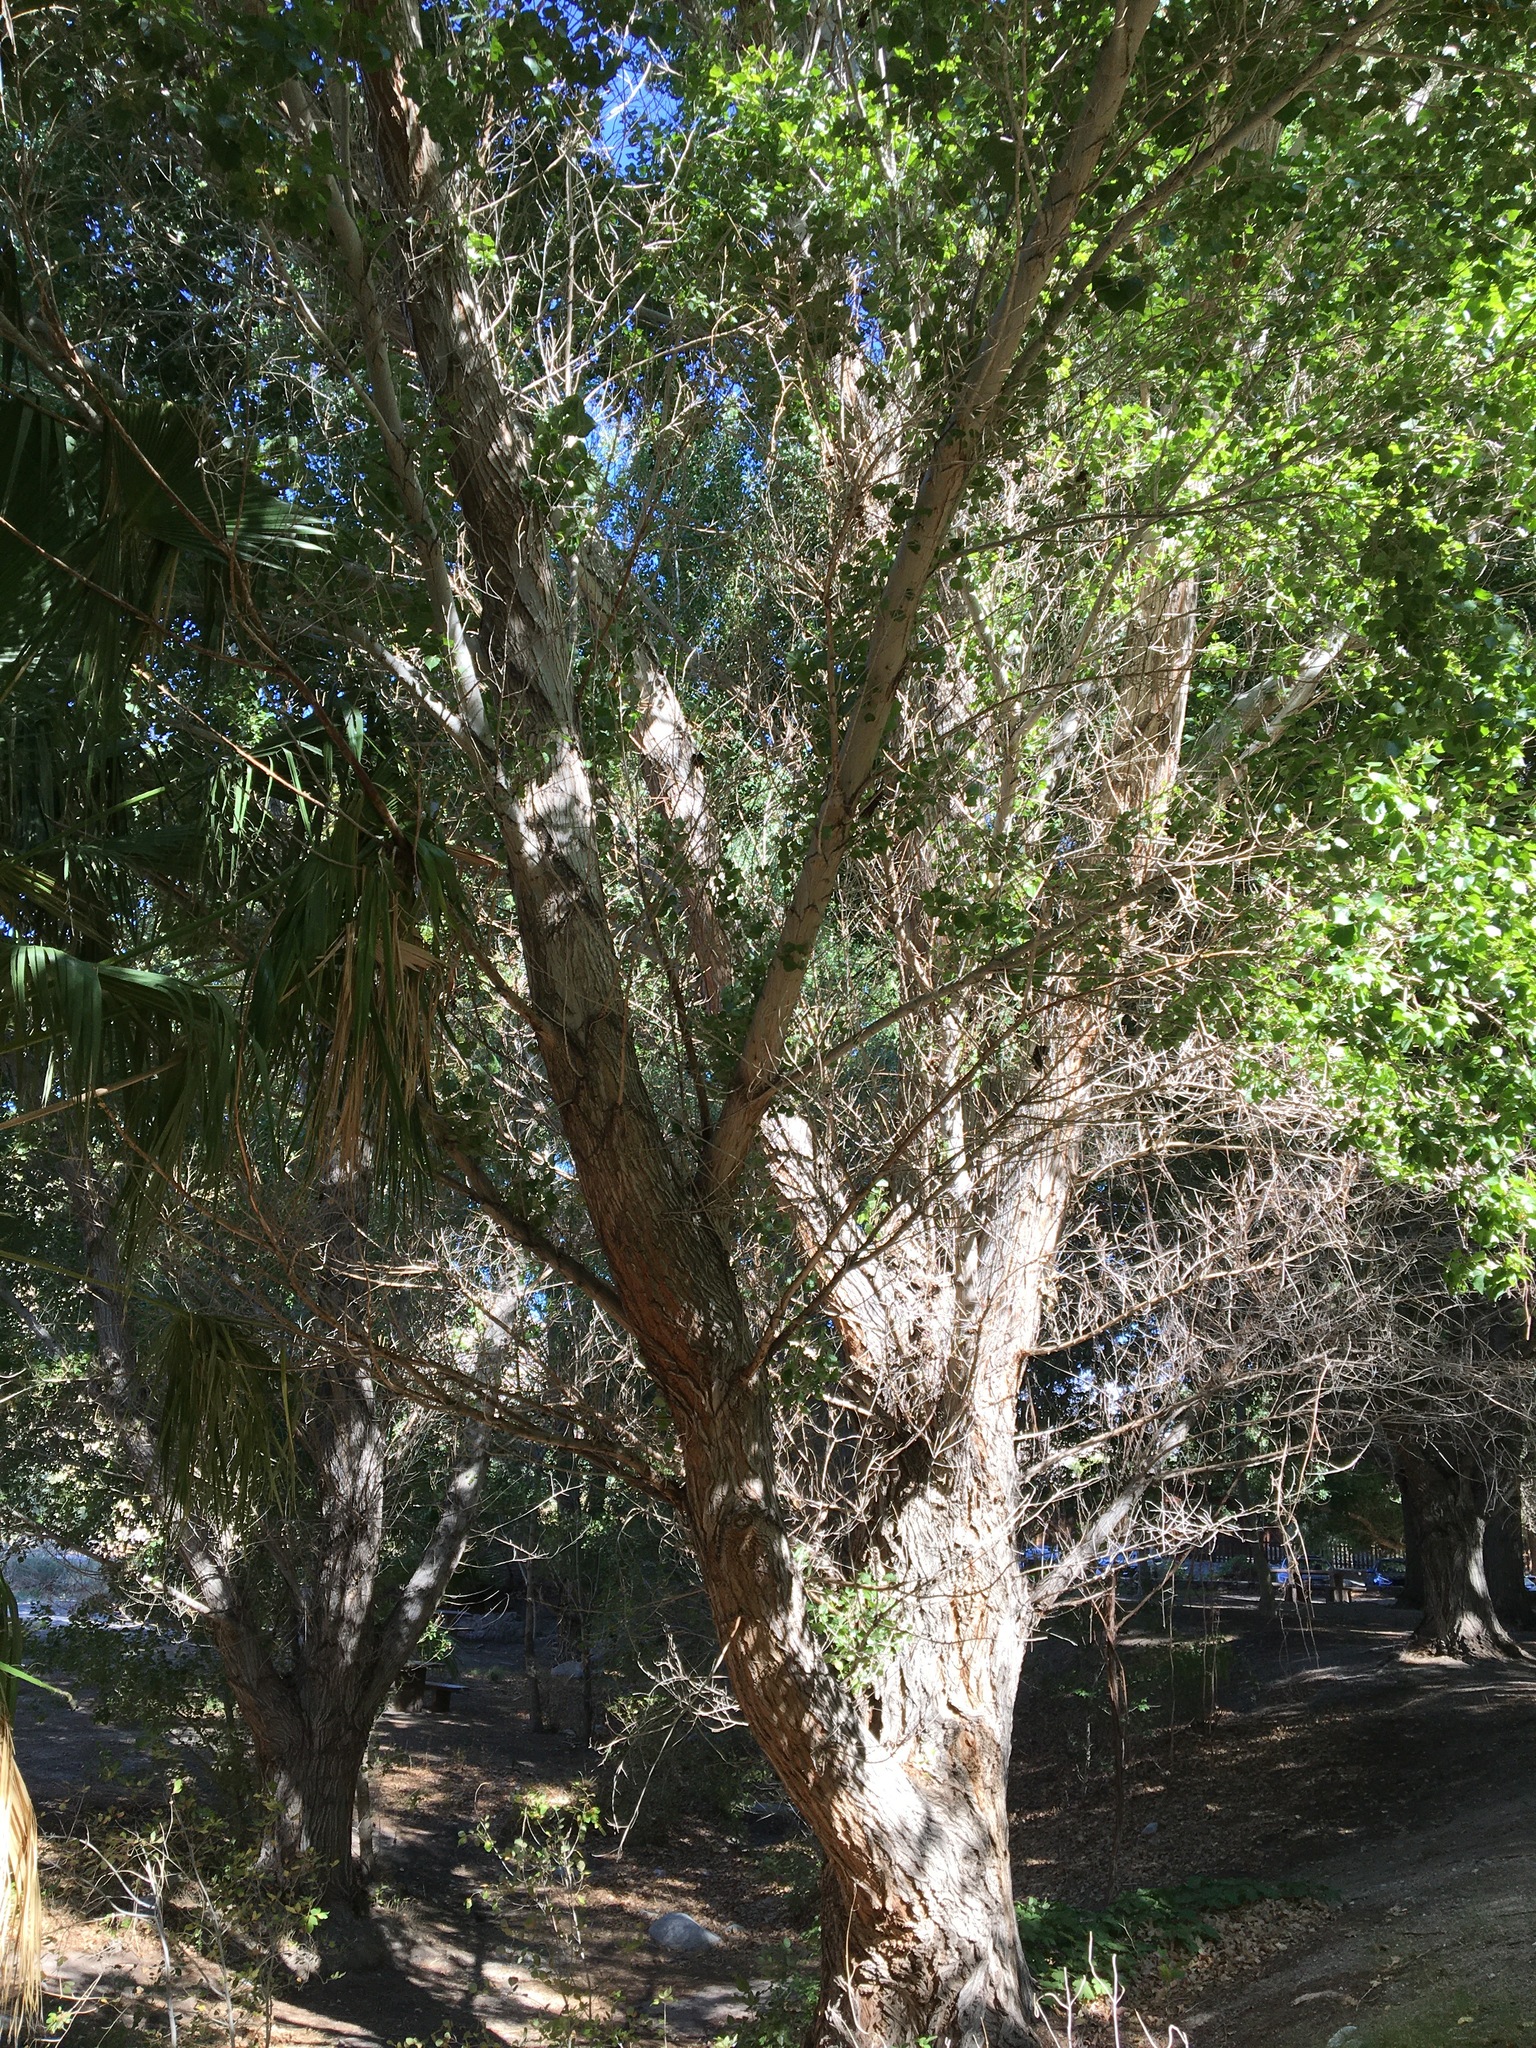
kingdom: Plantae
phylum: Tracheophyta
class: Magnoliopsida
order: Malpighiales
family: Salicaceae
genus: Populus
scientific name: Populus fremontii
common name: Fremont's cottonwood
